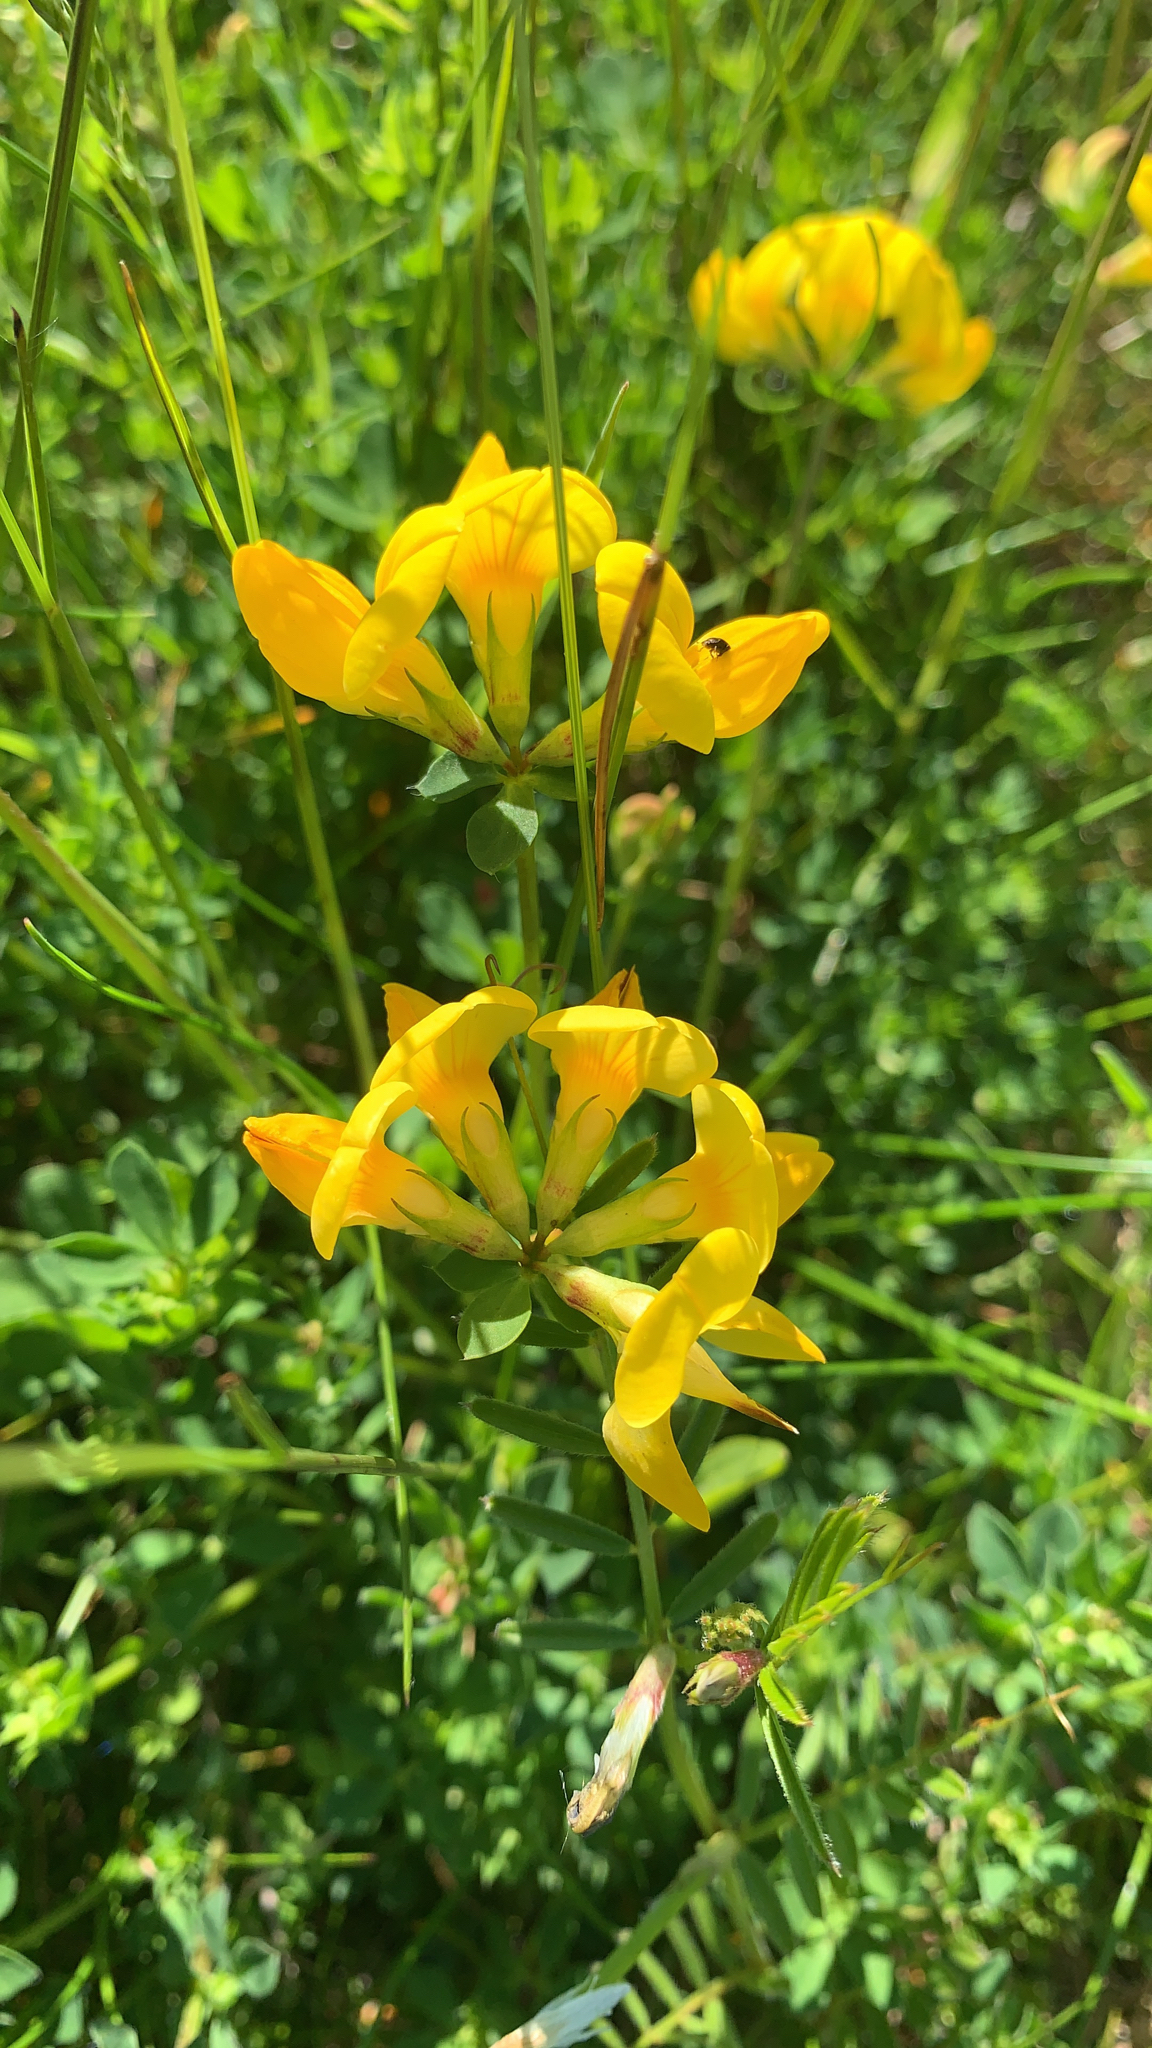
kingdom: Plantae
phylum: Tracheophyta
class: Magnoliopsida
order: Fabales
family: Fabaceae
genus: Lotus
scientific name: Lotus corniculatus
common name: Common bird's-foot-trefoil
